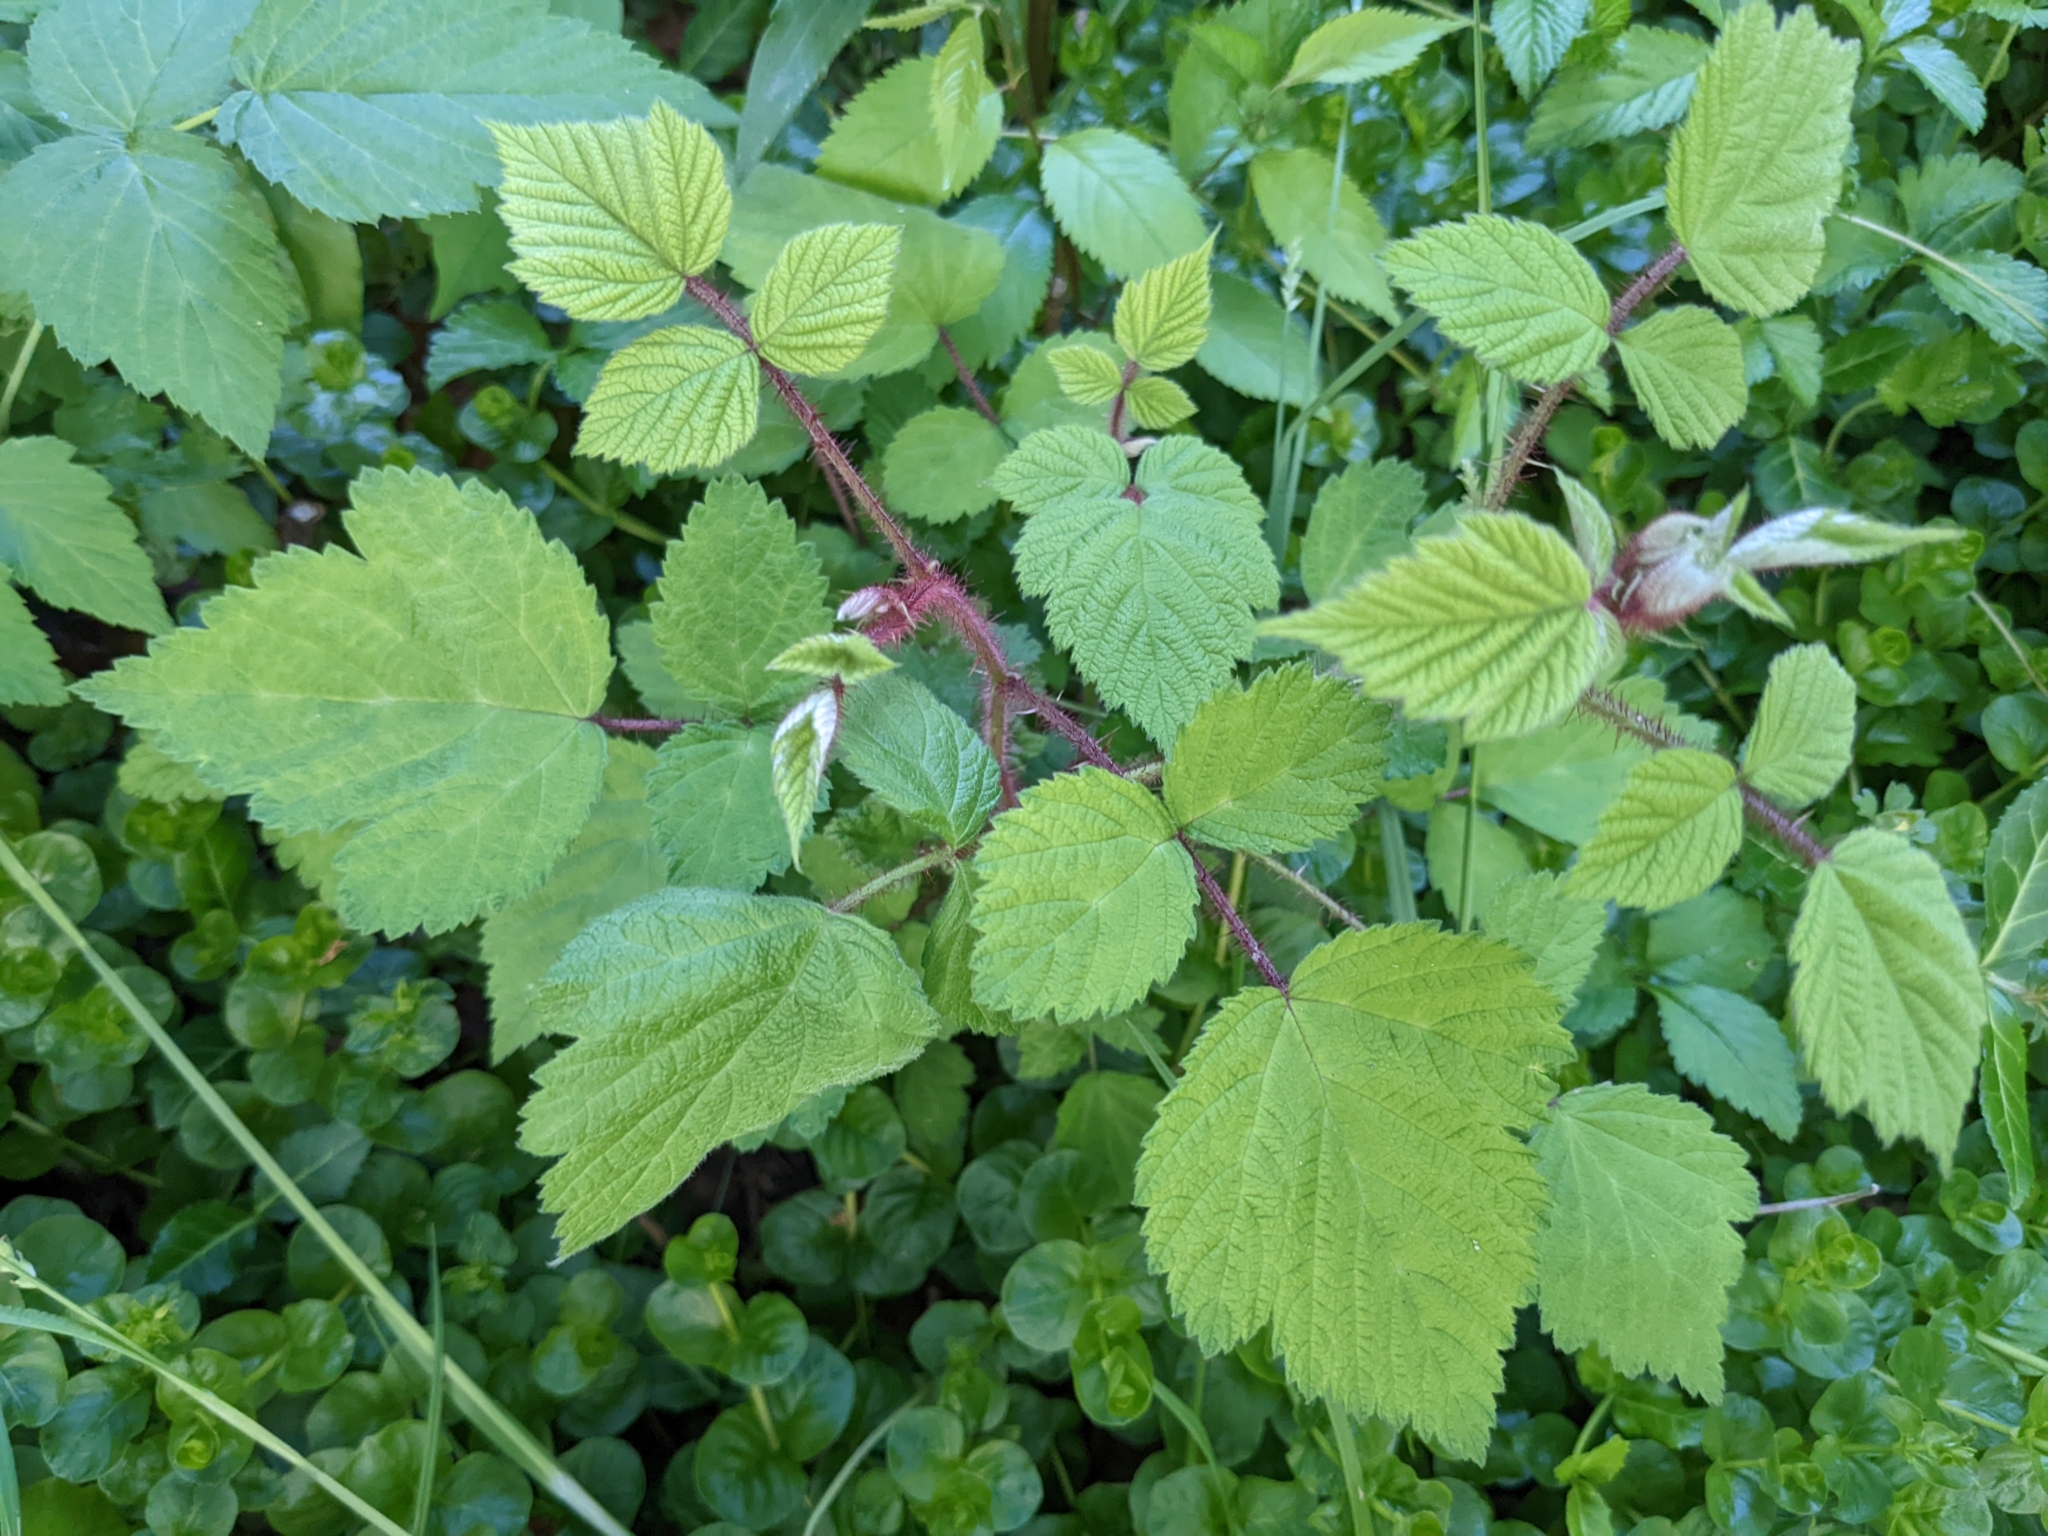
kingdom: Plantae
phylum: Tracheophyta
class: Magnoliopsida
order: Rosales
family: Rosaceae
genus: Rubus
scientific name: Rubus phoenicolasius
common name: Japanese wineberry
